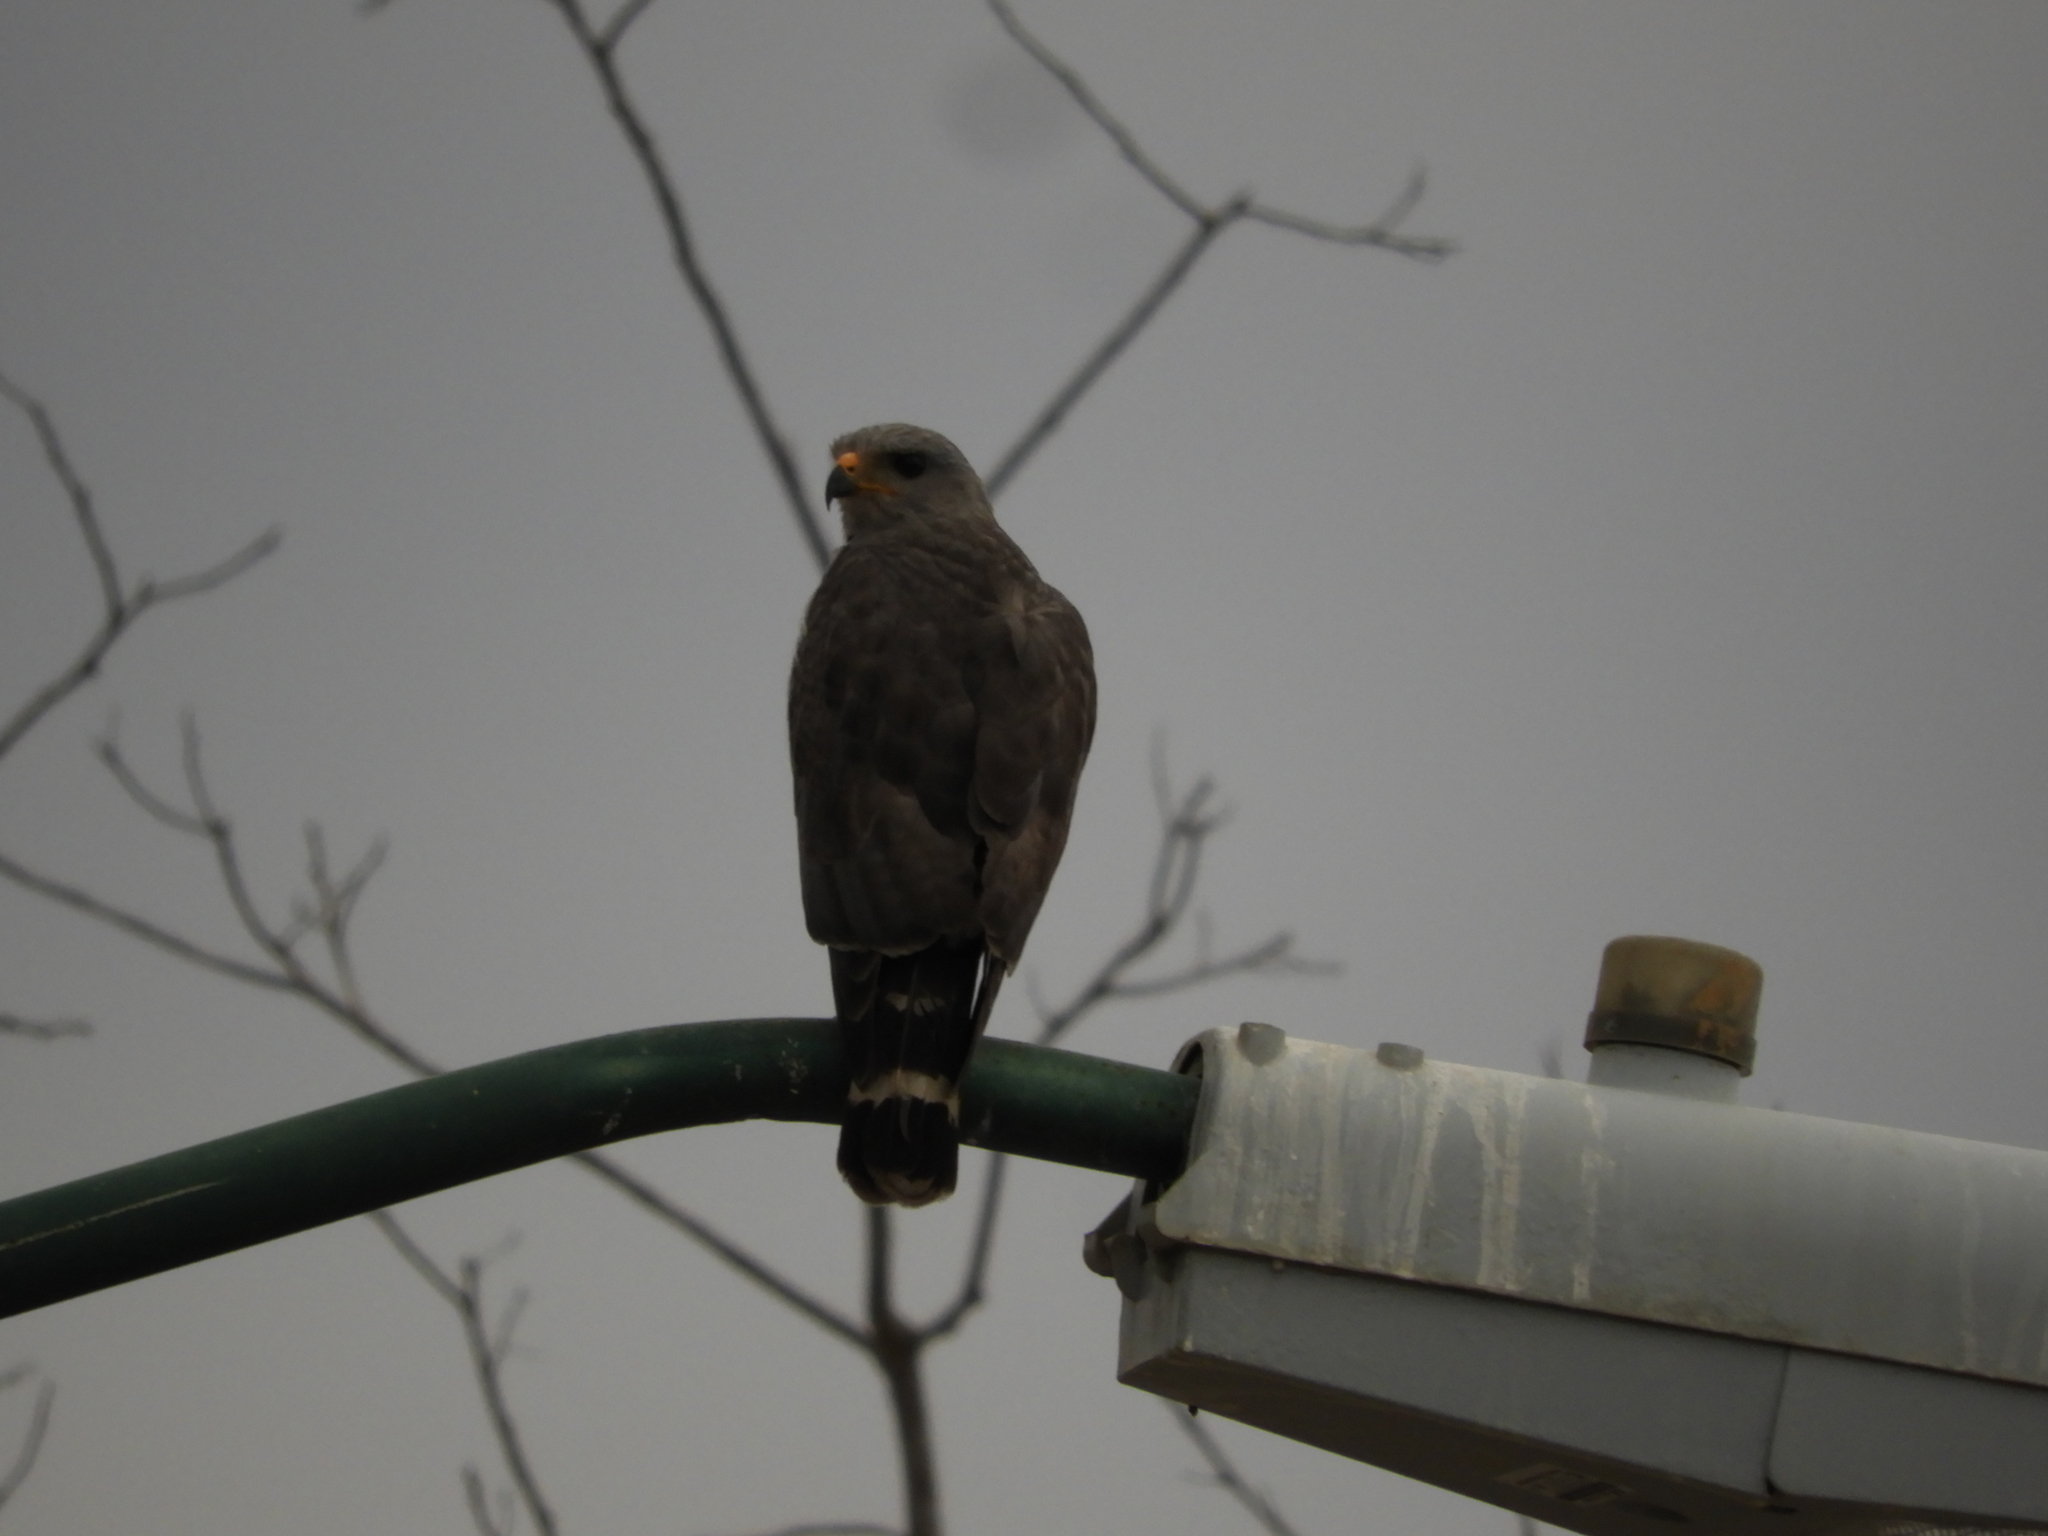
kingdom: Animalia
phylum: Chordata
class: Aves
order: Accipitriformes
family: Accipitridae
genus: Buteo
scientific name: Buteo nitidus
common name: Grey-lined hawk
